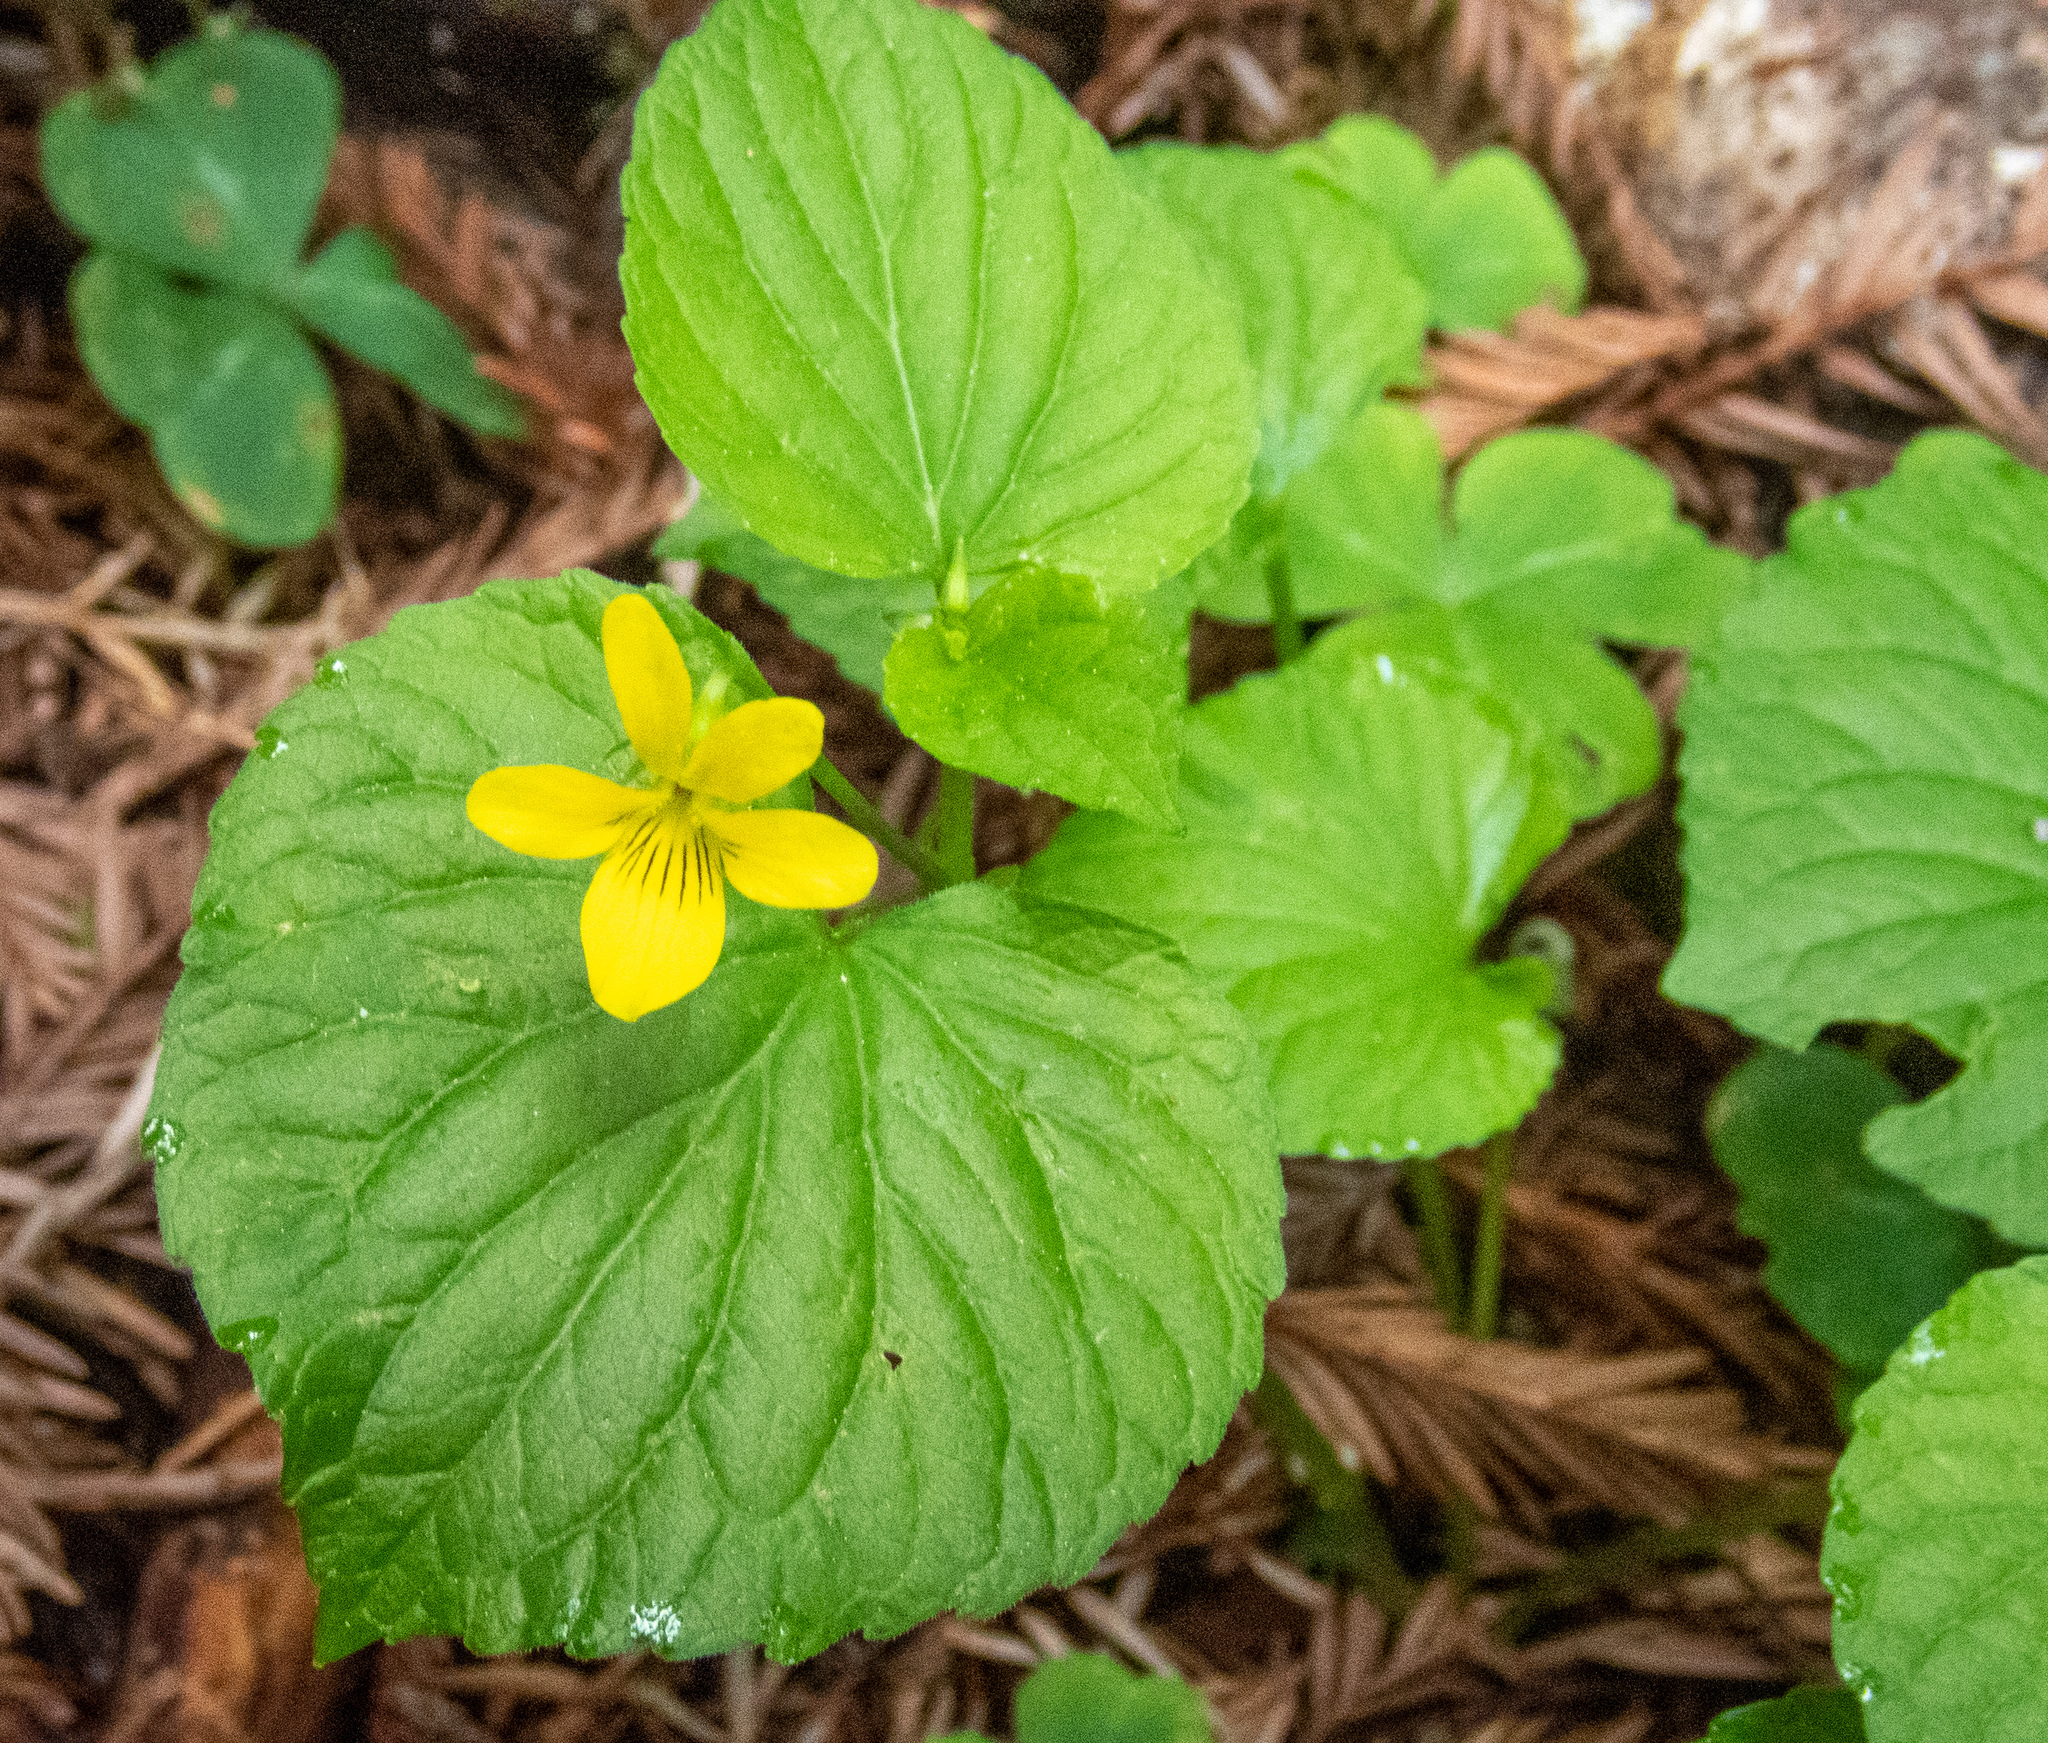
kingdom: Plantae
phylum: Tracheophyta
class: Magnoliopsida
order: Malpighiales
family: Violaceae
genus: Viola
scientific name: Viola glabella
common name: Stream violet
